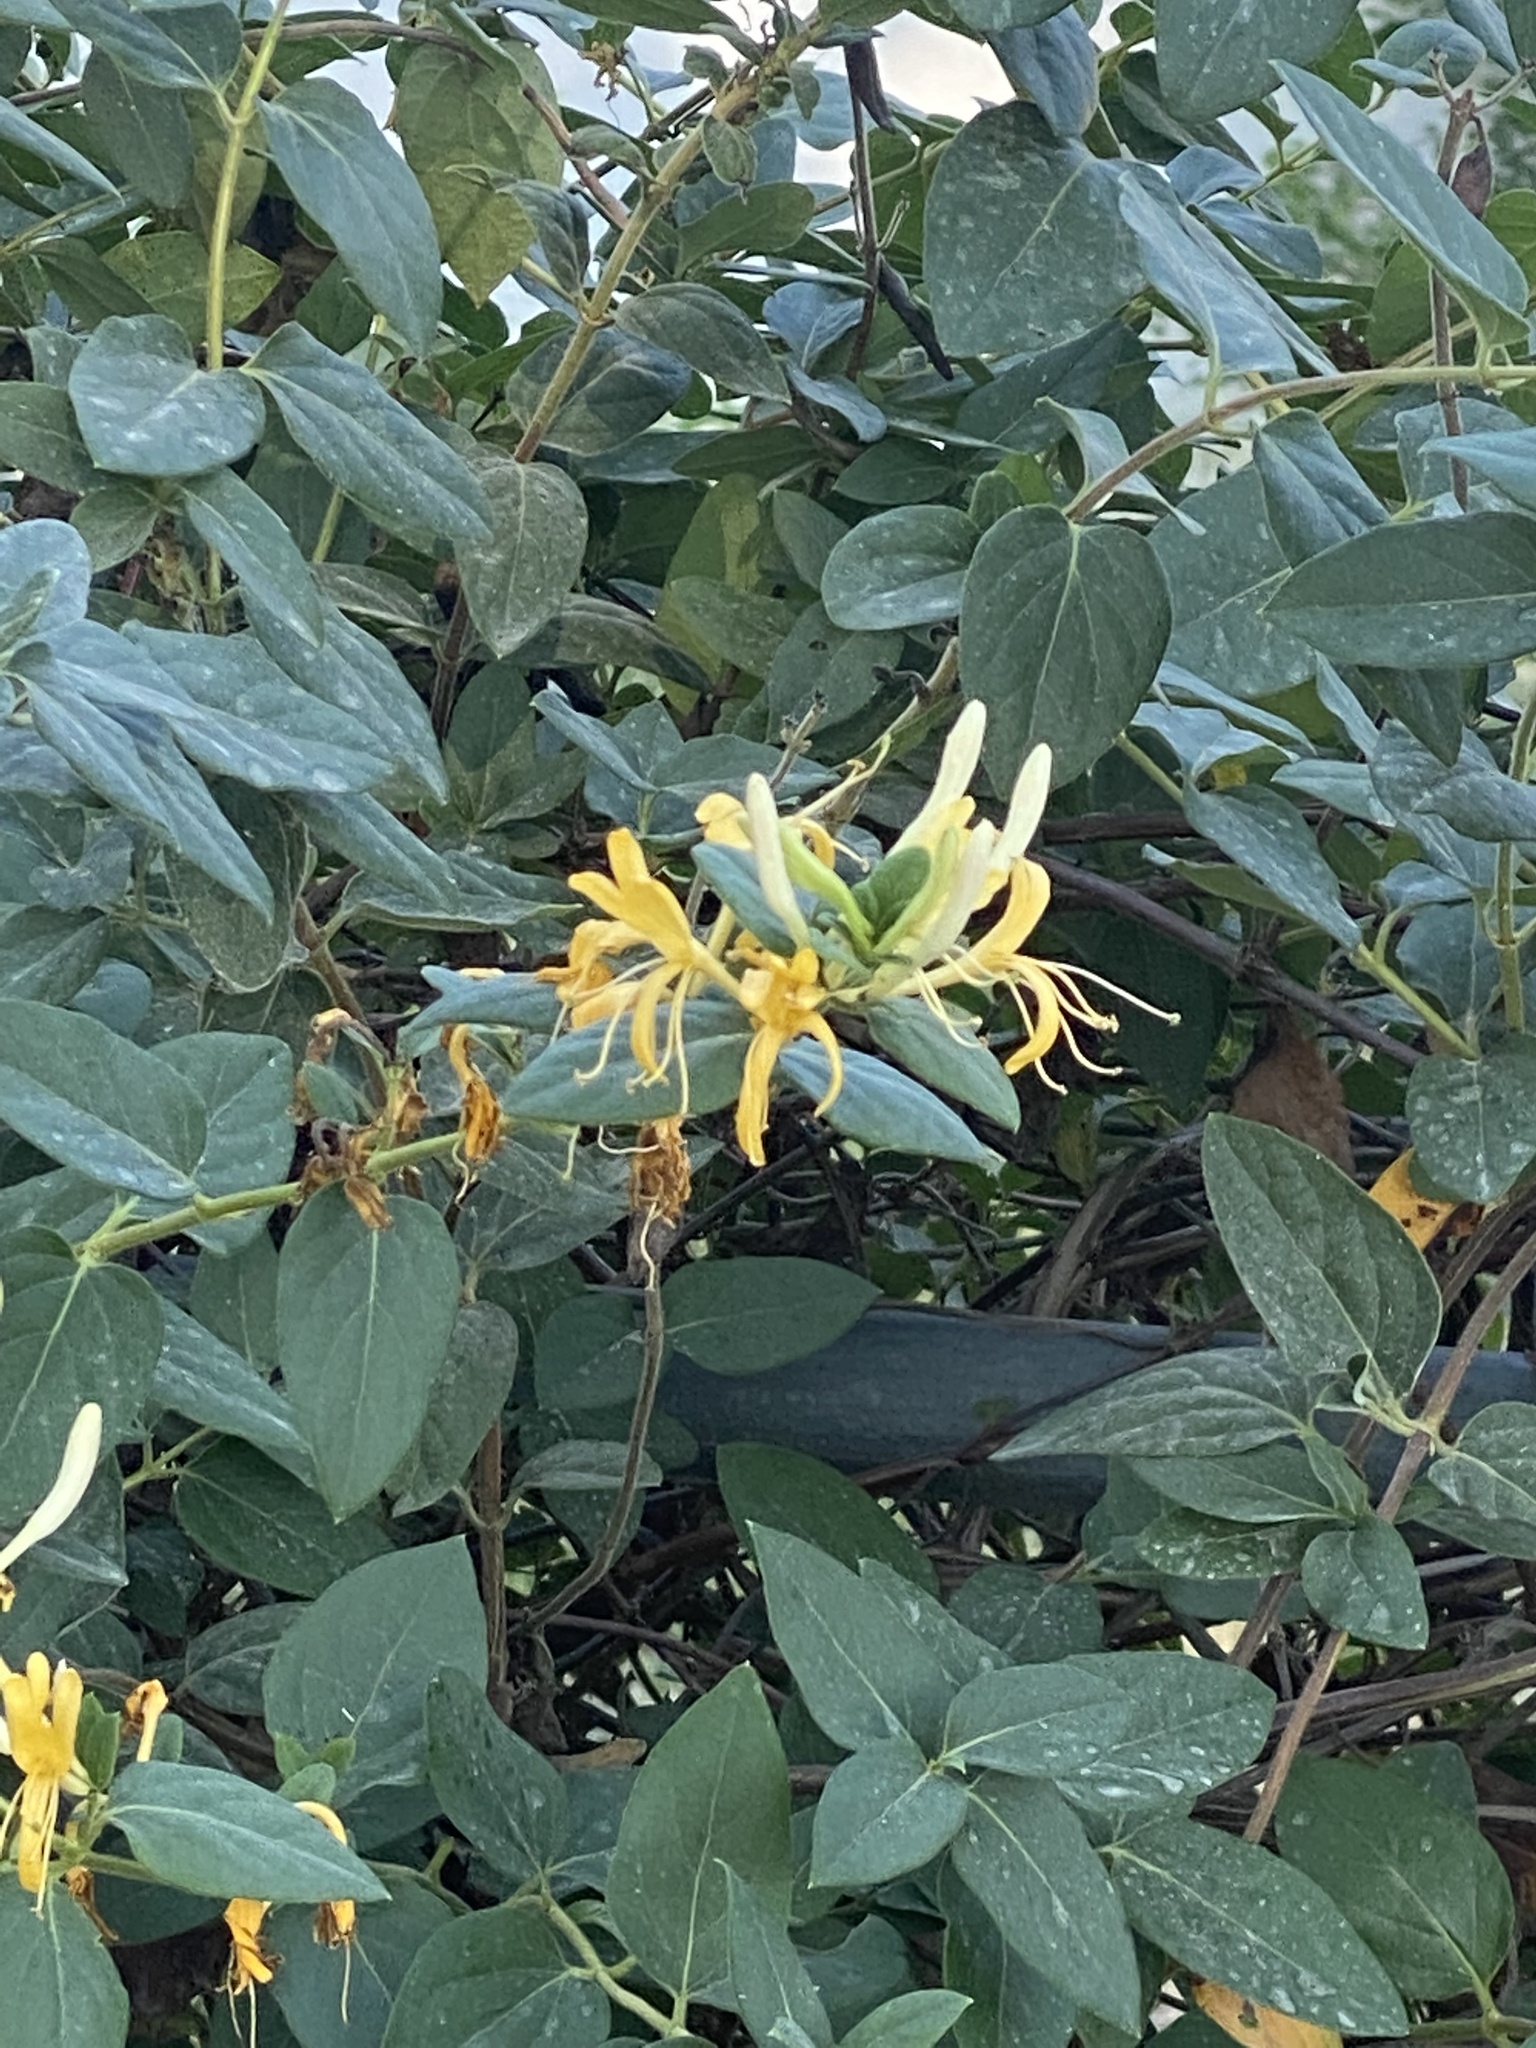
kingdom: Plantae
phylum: Tracheophyta
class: Magnoliopsida
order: Dipsacales
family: Caprifoliaceae
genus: Lonicera
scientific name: Lonicera japonica
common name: Japanese honeysuckle
